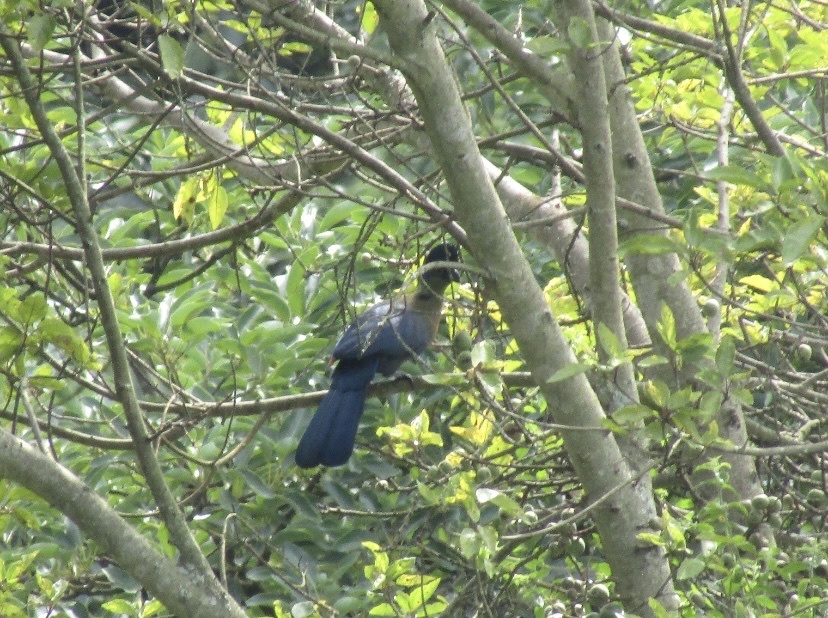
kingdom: Animalia
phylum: Chordata
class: Aves
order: Musophagiformes
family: Musophagidae
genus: Tauraco
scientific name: Tauraco porphyreolophus
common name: Purple-crested turaco
